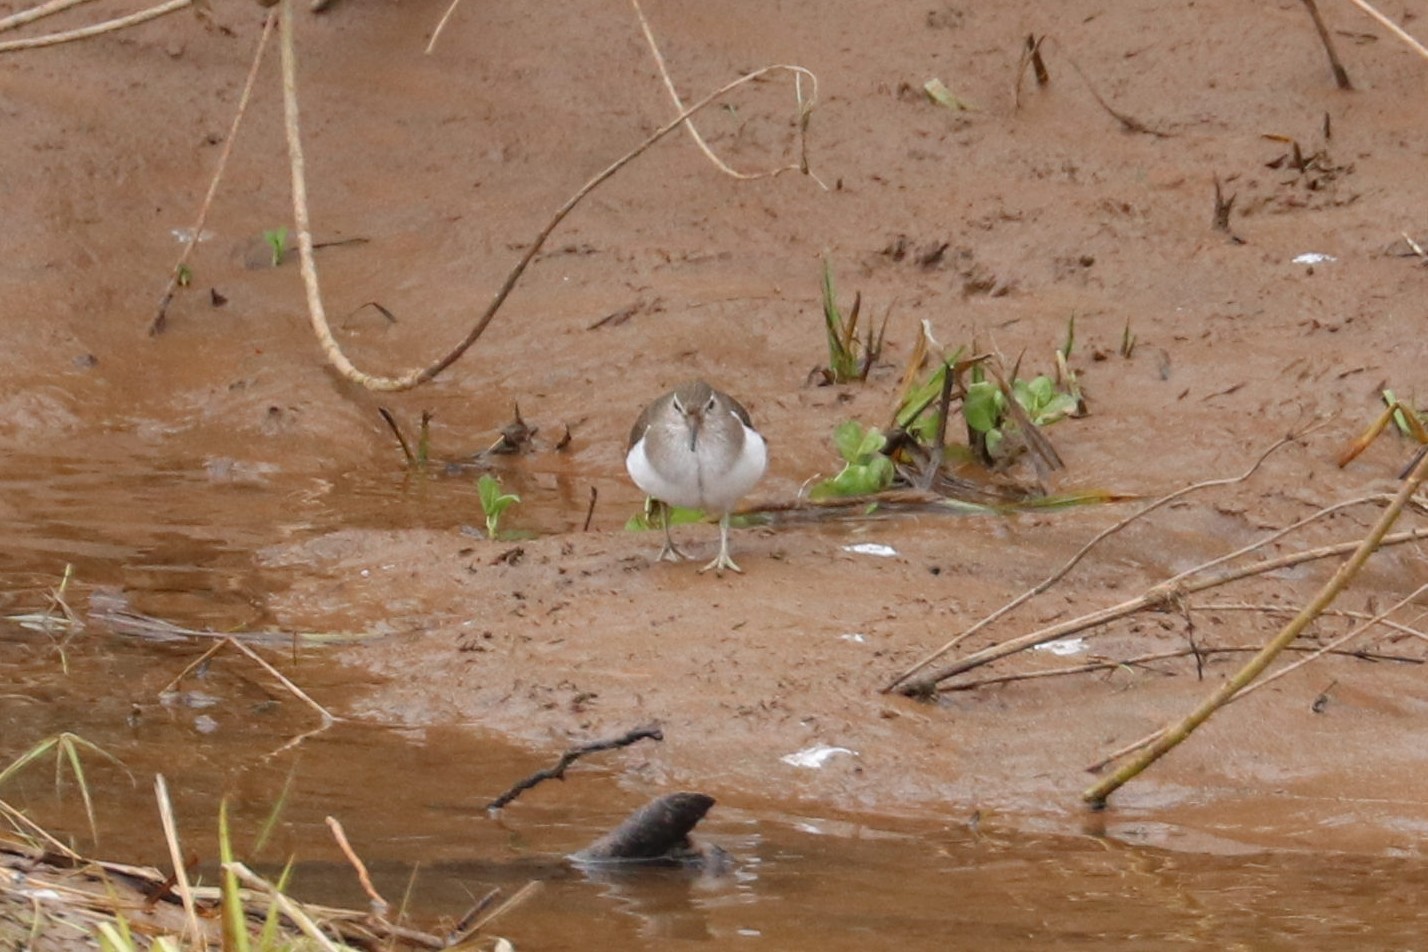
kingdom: Animalia
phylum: Chordata
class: Aves
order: Charadriiformes
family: Scolopacidae
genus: Actitis
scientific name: Actitis hypoleucos
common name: Common sandpiper
